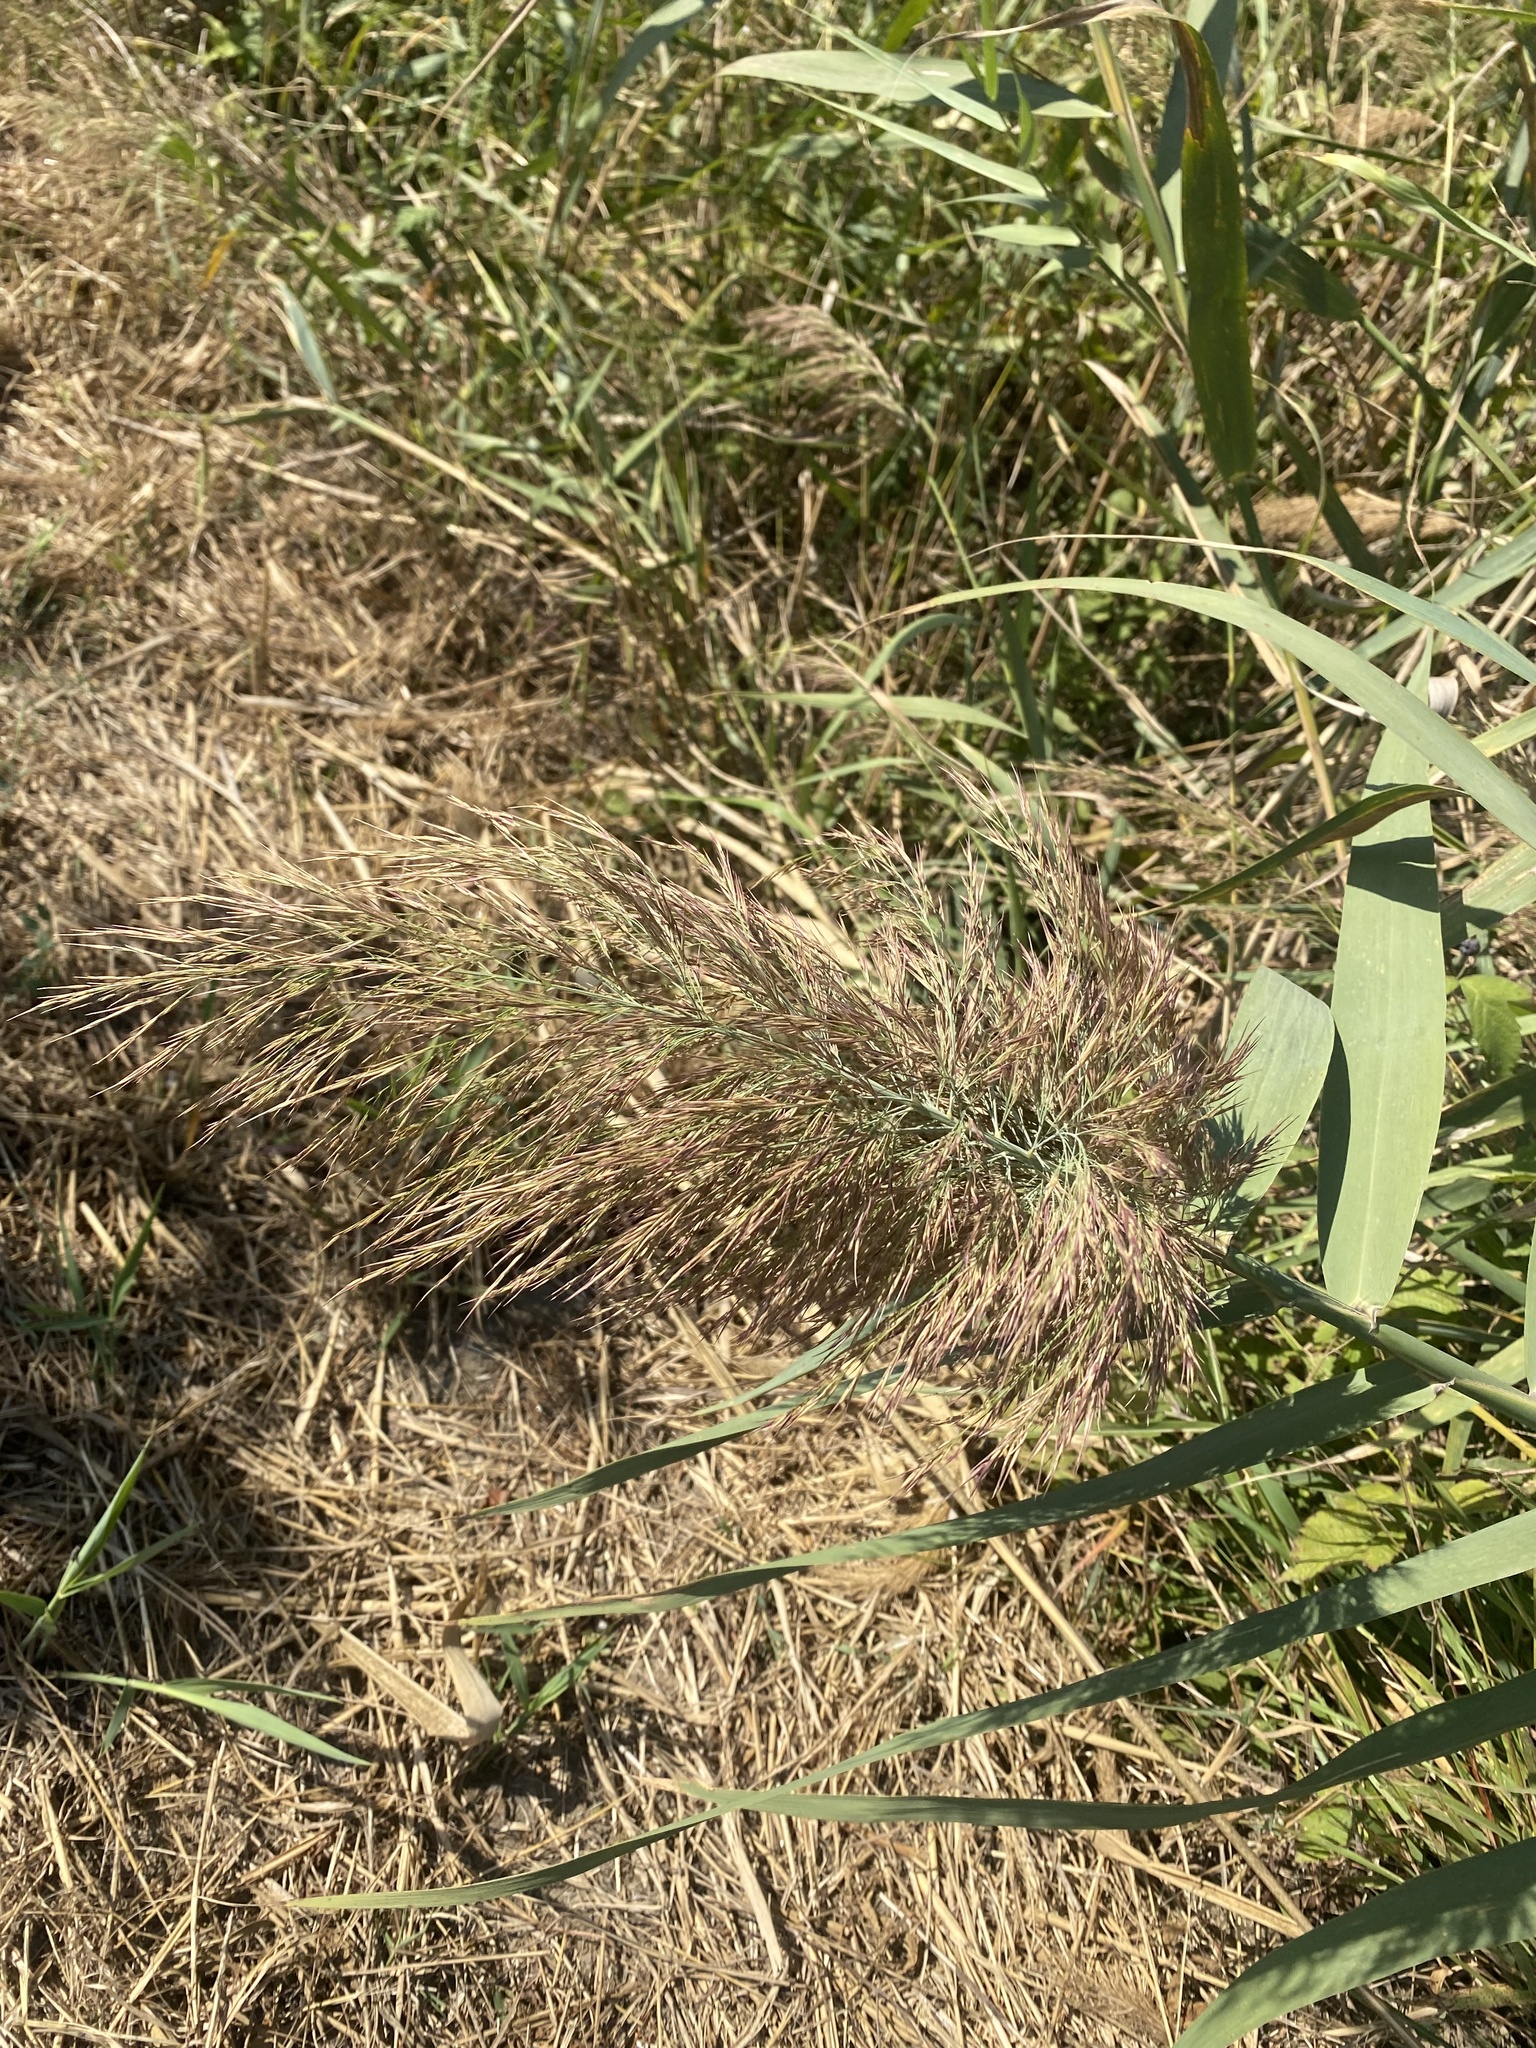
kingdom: Plantae
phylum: Tracheophyta
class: Liliopsida
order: Poales
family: Poaceae
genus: Phragmites
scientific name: Phragmites australis
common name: Common reed
